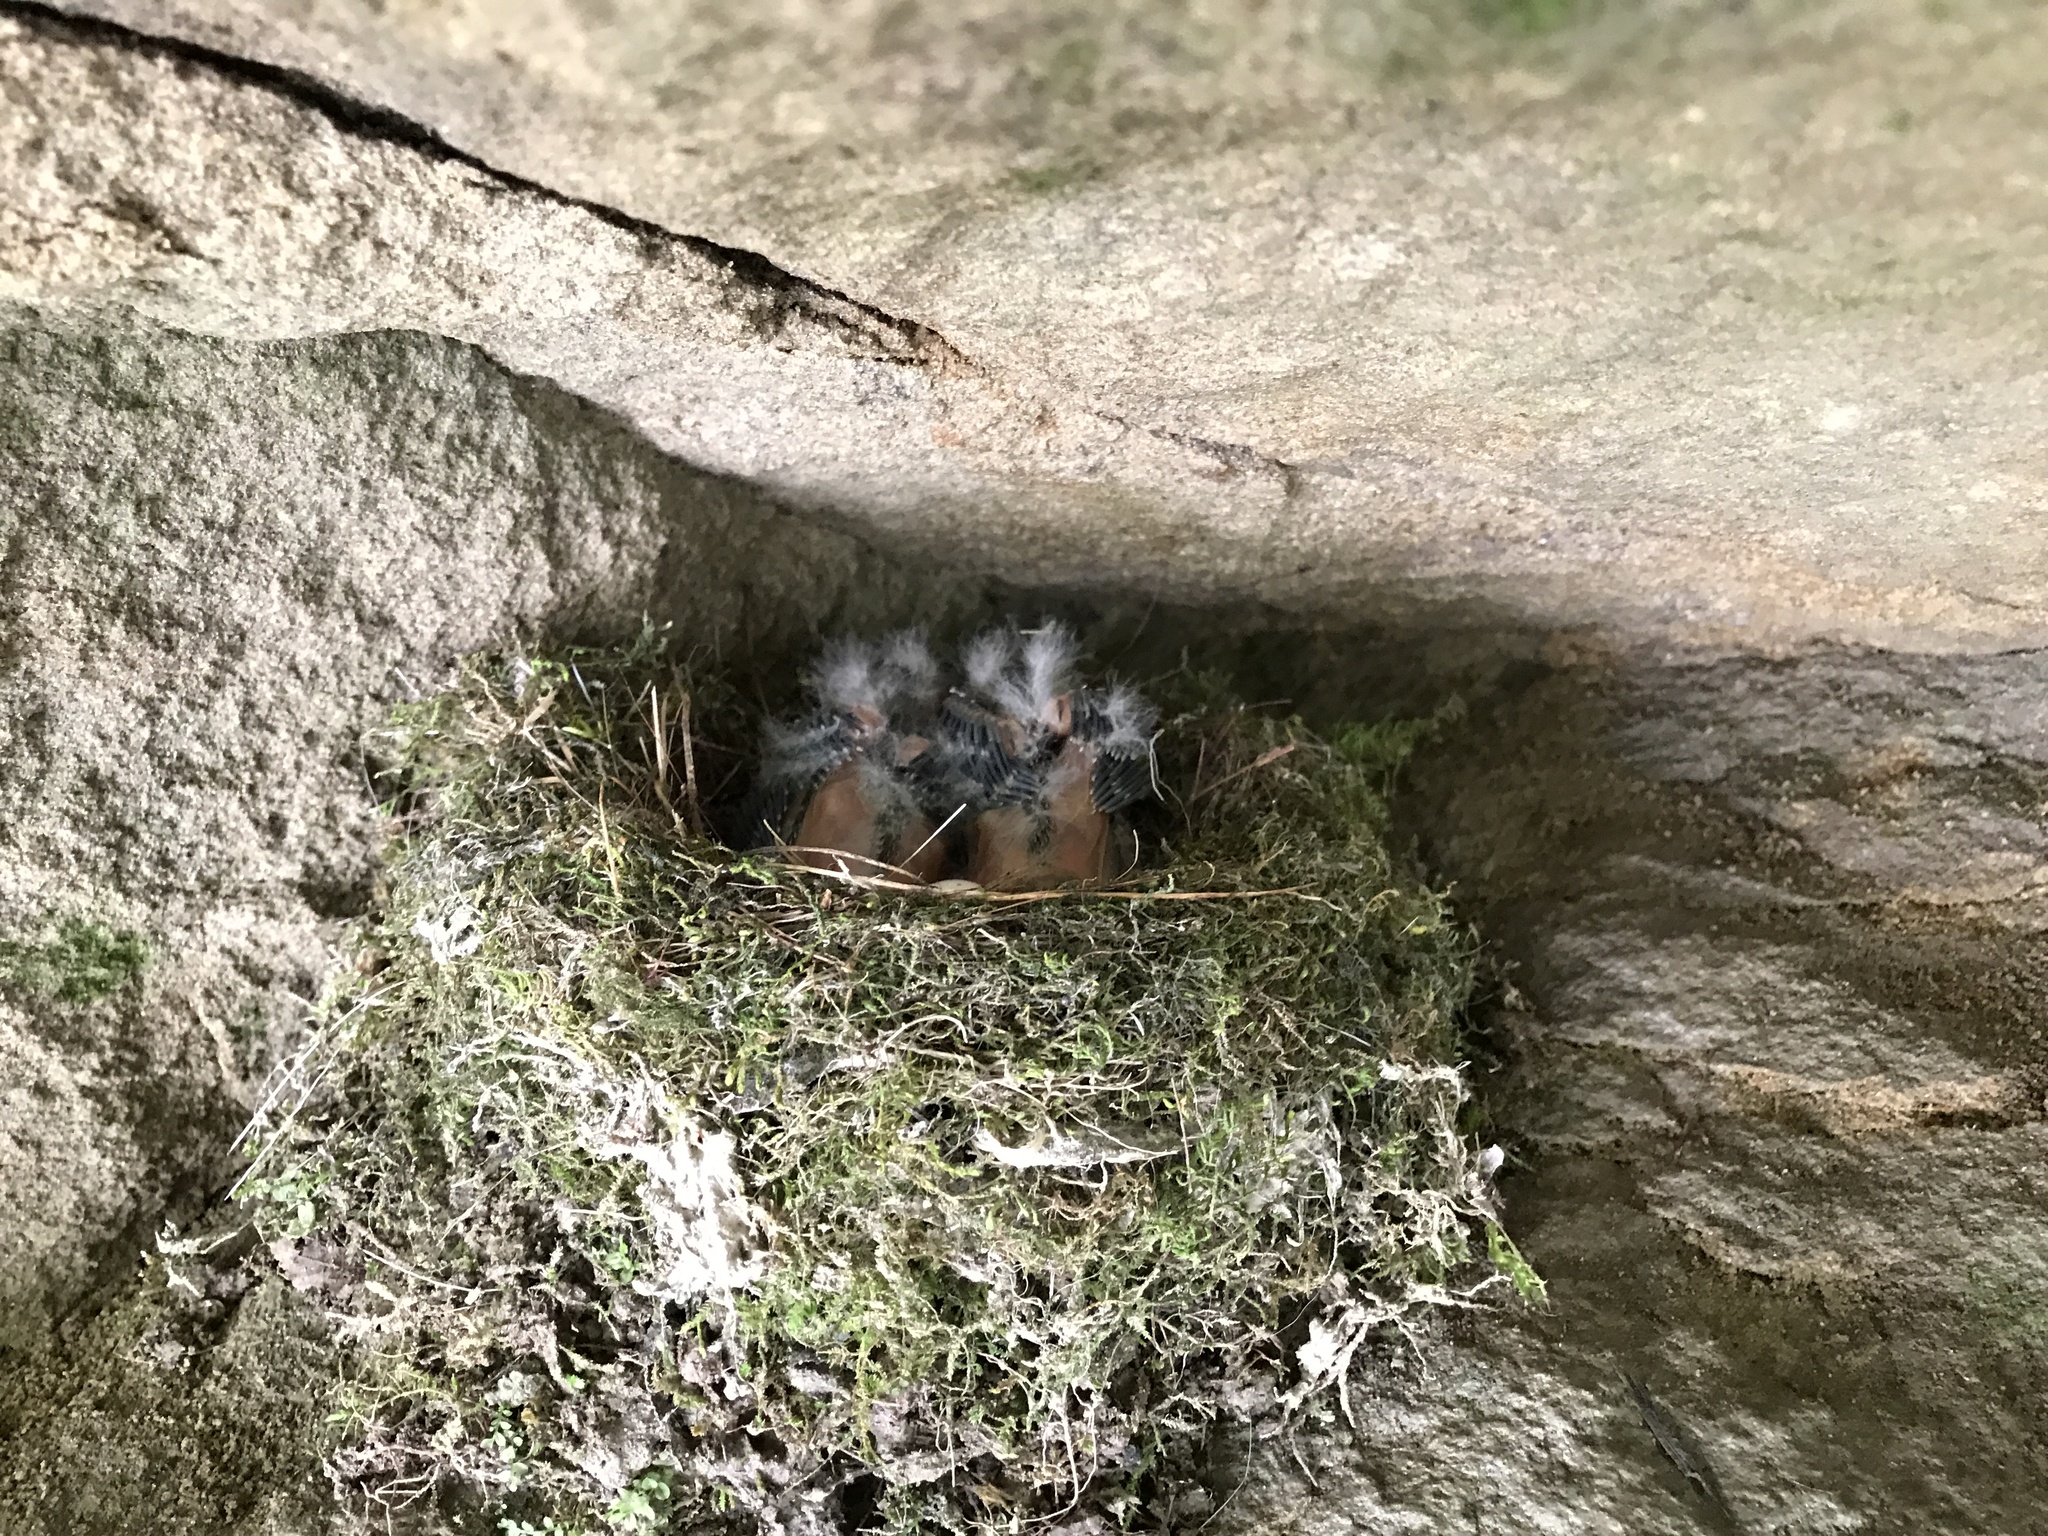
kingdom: Animalia
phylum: Chordata
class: Aves
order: Passeriformes
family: Tyrannidae
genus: Sayornis
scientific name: Sayornis phoebe
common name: Eastern phoebe
